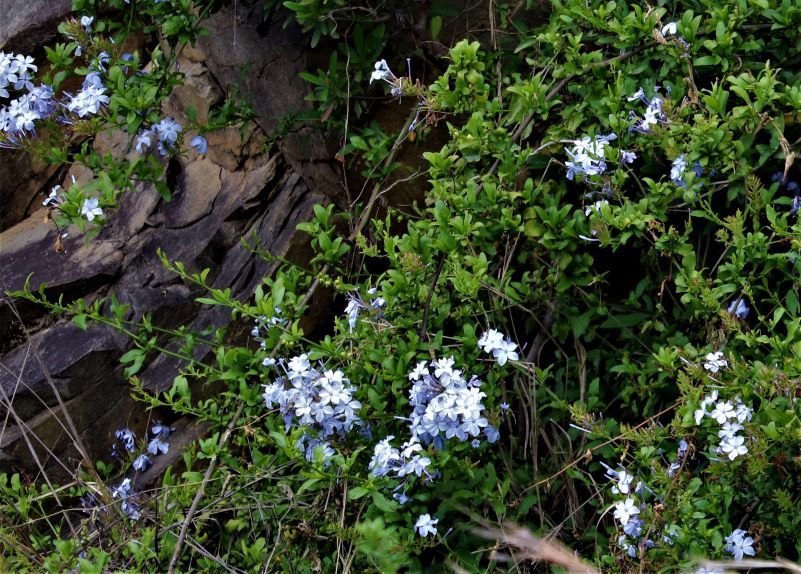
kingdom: Plantae
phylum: Tracheophyta
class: Magnoliopsida
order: Caryophyllales
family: Plumbaginaceae
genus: Plumbago
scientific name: Plumbago auriculata
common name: Cape leadwort
